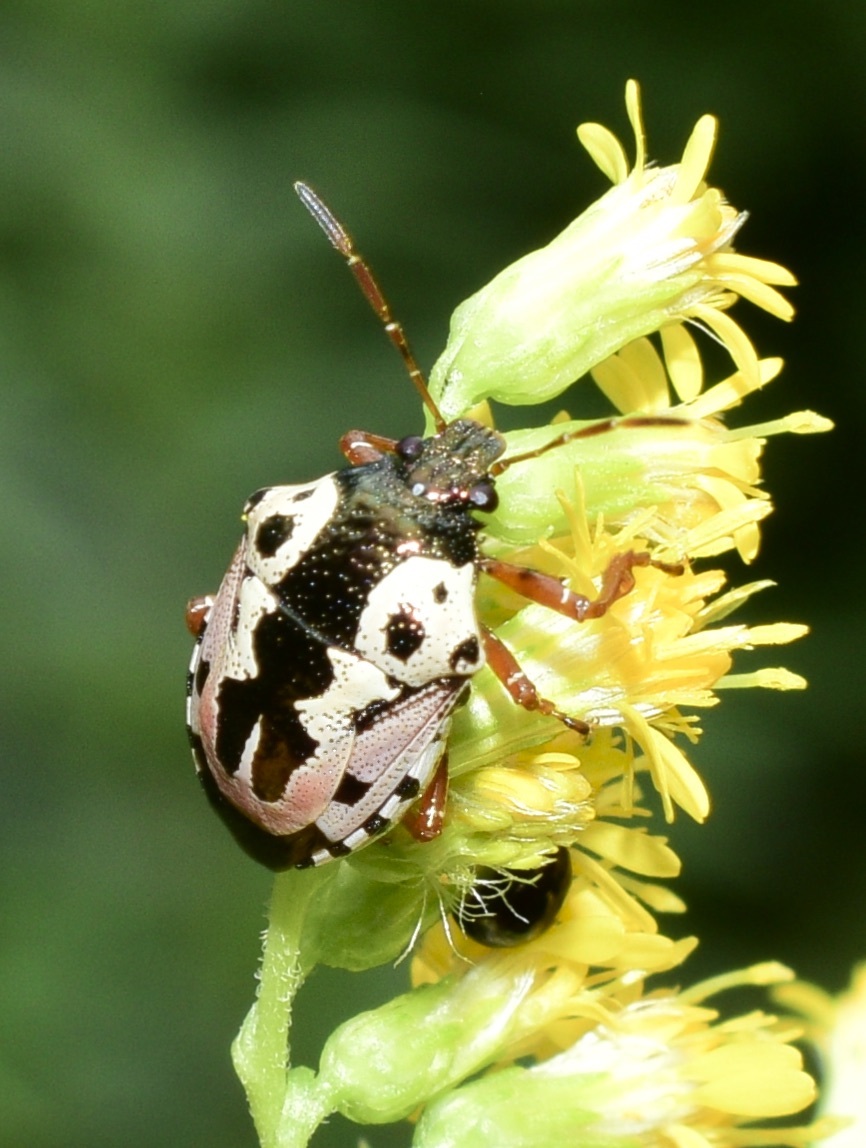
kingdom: Animalia
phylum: Arthropoda
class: Insecta
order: Hemiptera
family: Pentatomidae
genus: Stiretrus
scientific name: Stiretrus anchorago
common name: Anchor stink bug
